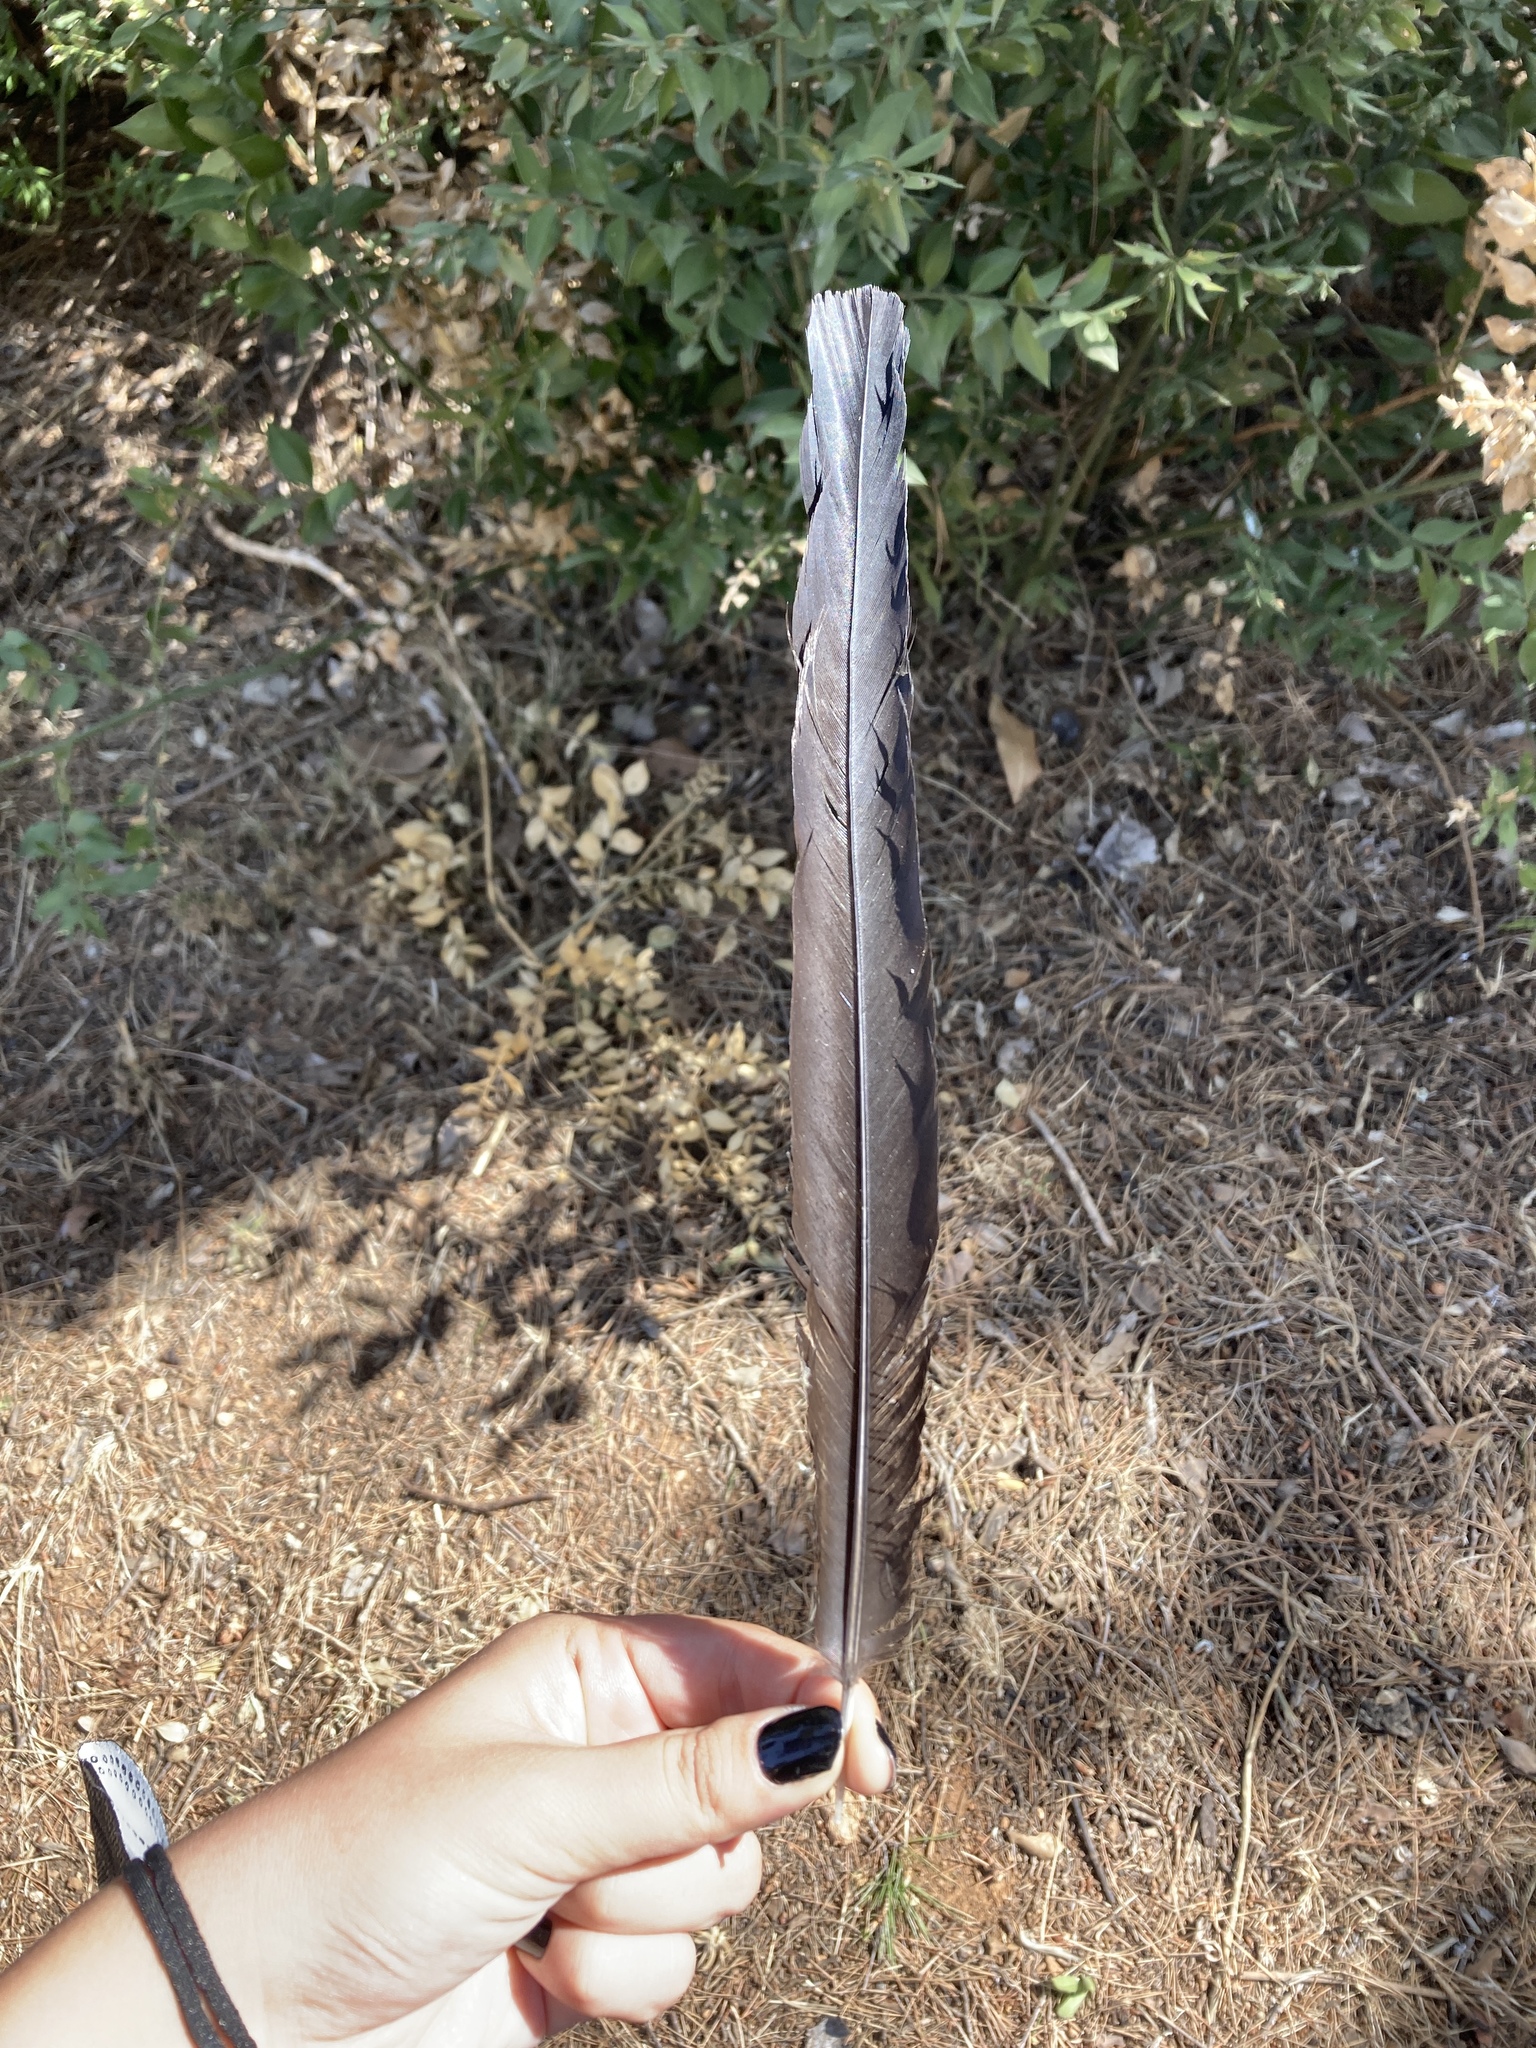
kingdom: Animalia
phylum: Chordata
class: Aves
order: Passeriformes
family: Corvidae
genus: Pica
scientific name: Pica pica
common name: Eurasian magpie
